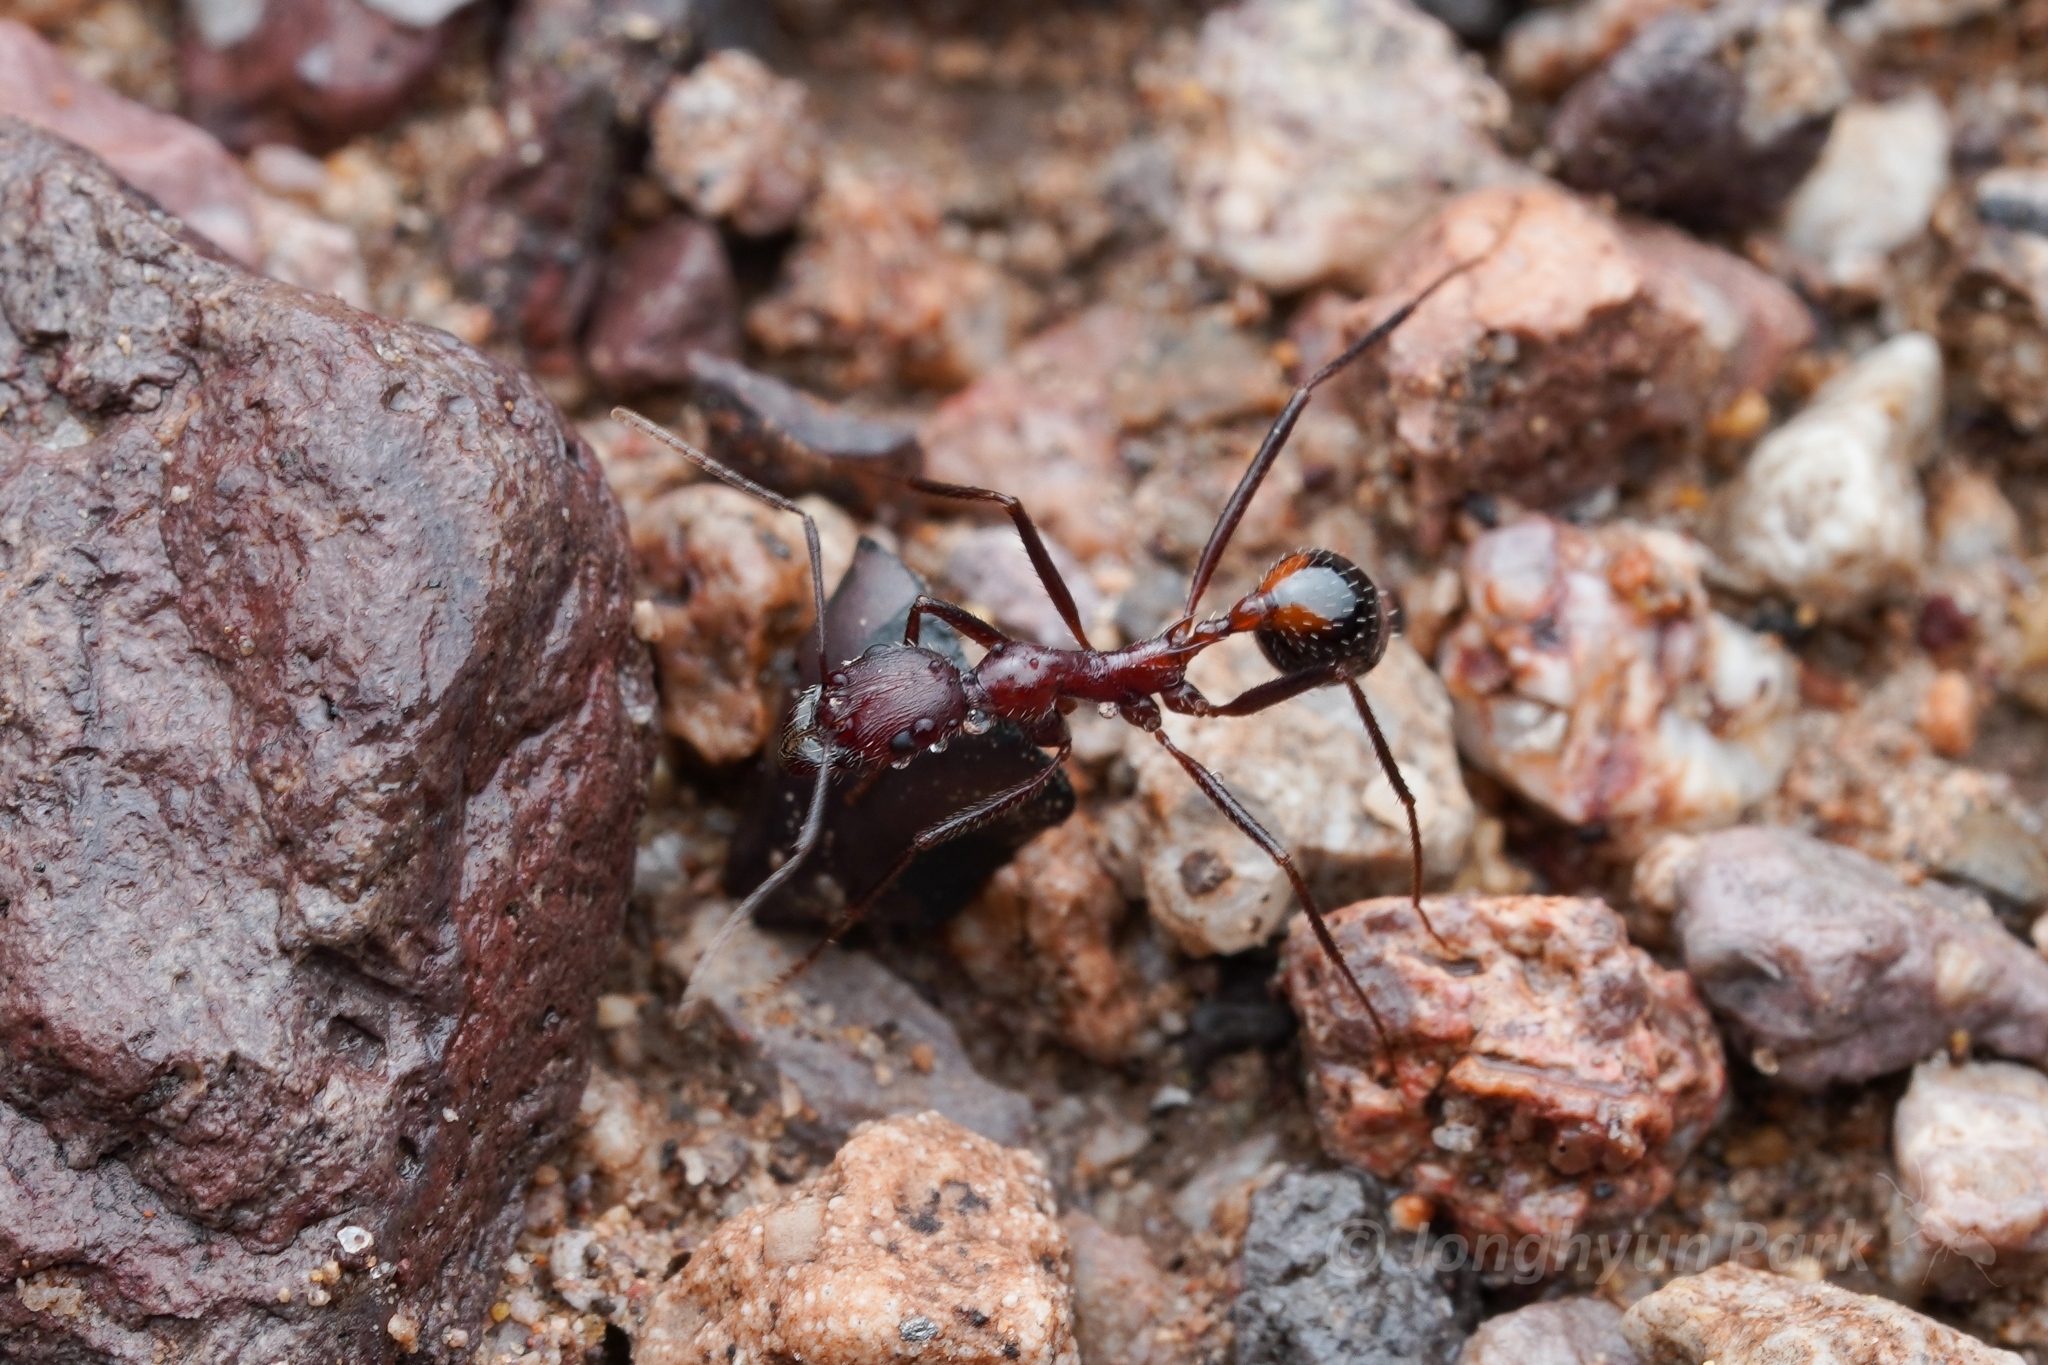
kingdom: Animalia
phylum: Arthropoda
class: Insecta
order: Hymenoptera
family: Formicidae
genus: Novomessor
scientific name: Novomessor cockerelli
